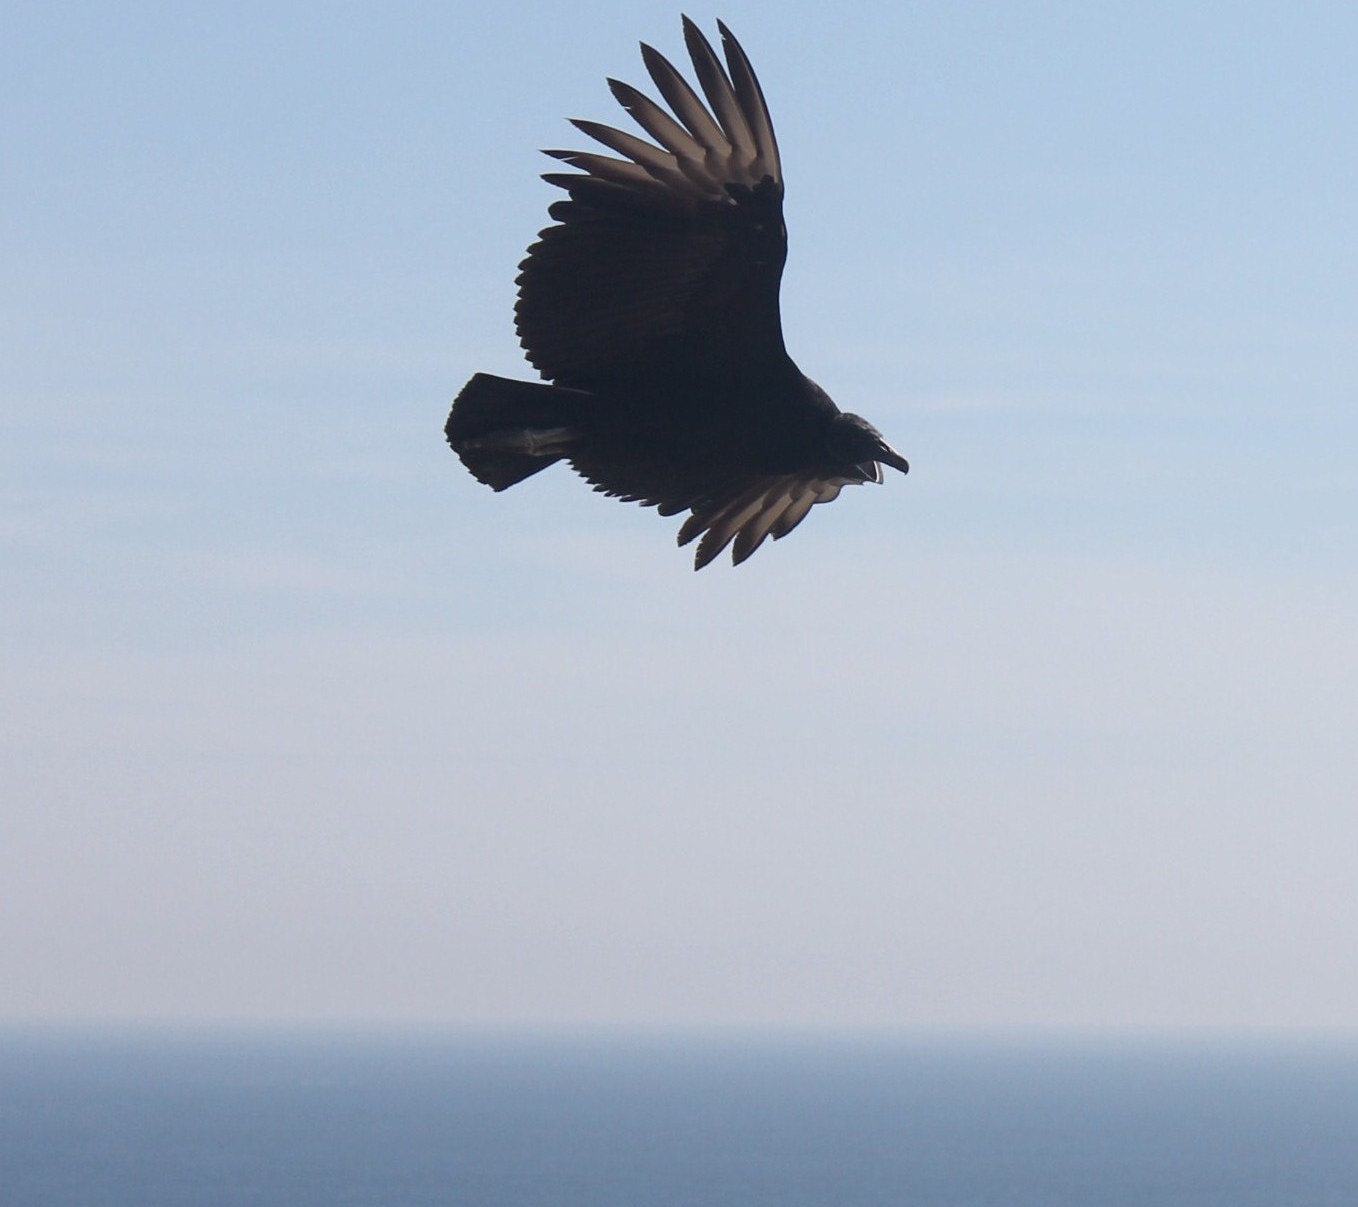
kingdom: Animalia
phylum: Chordata
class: Aves
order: Accipitriformes
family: Cathartidae
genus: Coragyps
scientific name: Coragyps atratus
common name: Black vulture
